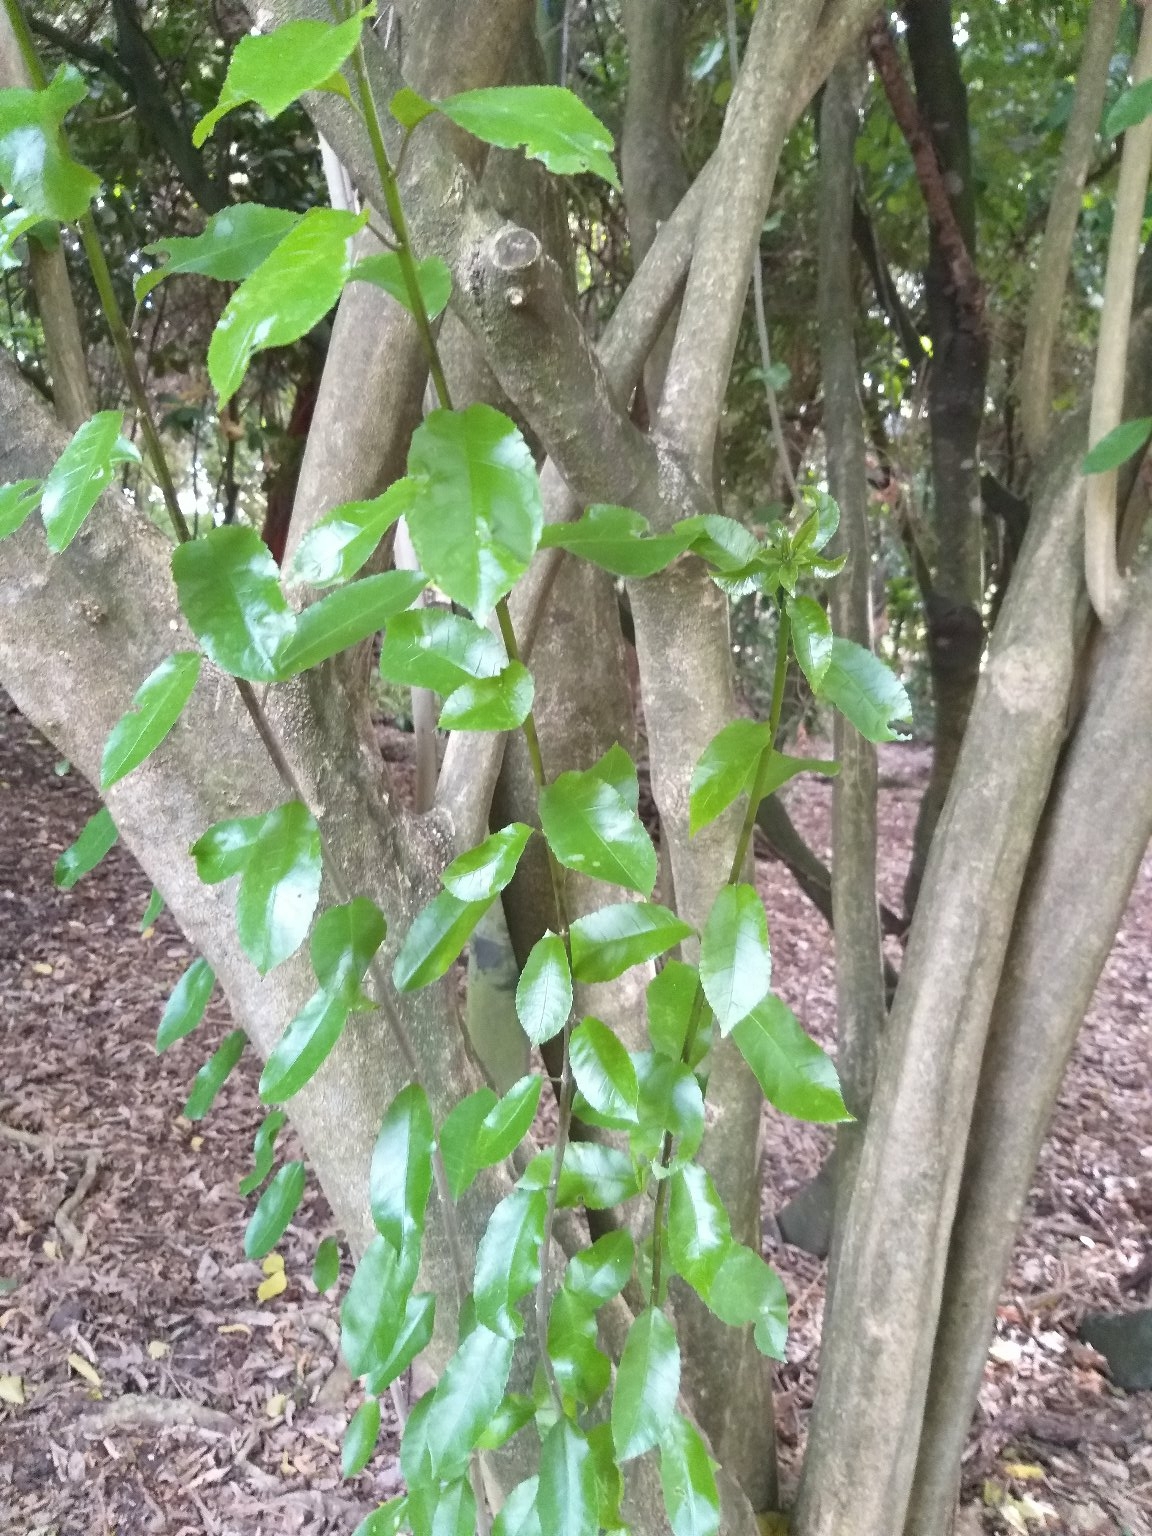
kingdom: Plantae
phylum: Tracheophyta
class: Magnoliopsida
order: Malpighiales
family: Violaceae
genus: Melicytus
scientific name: Melicytus ramiflorus
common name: Mahoe
